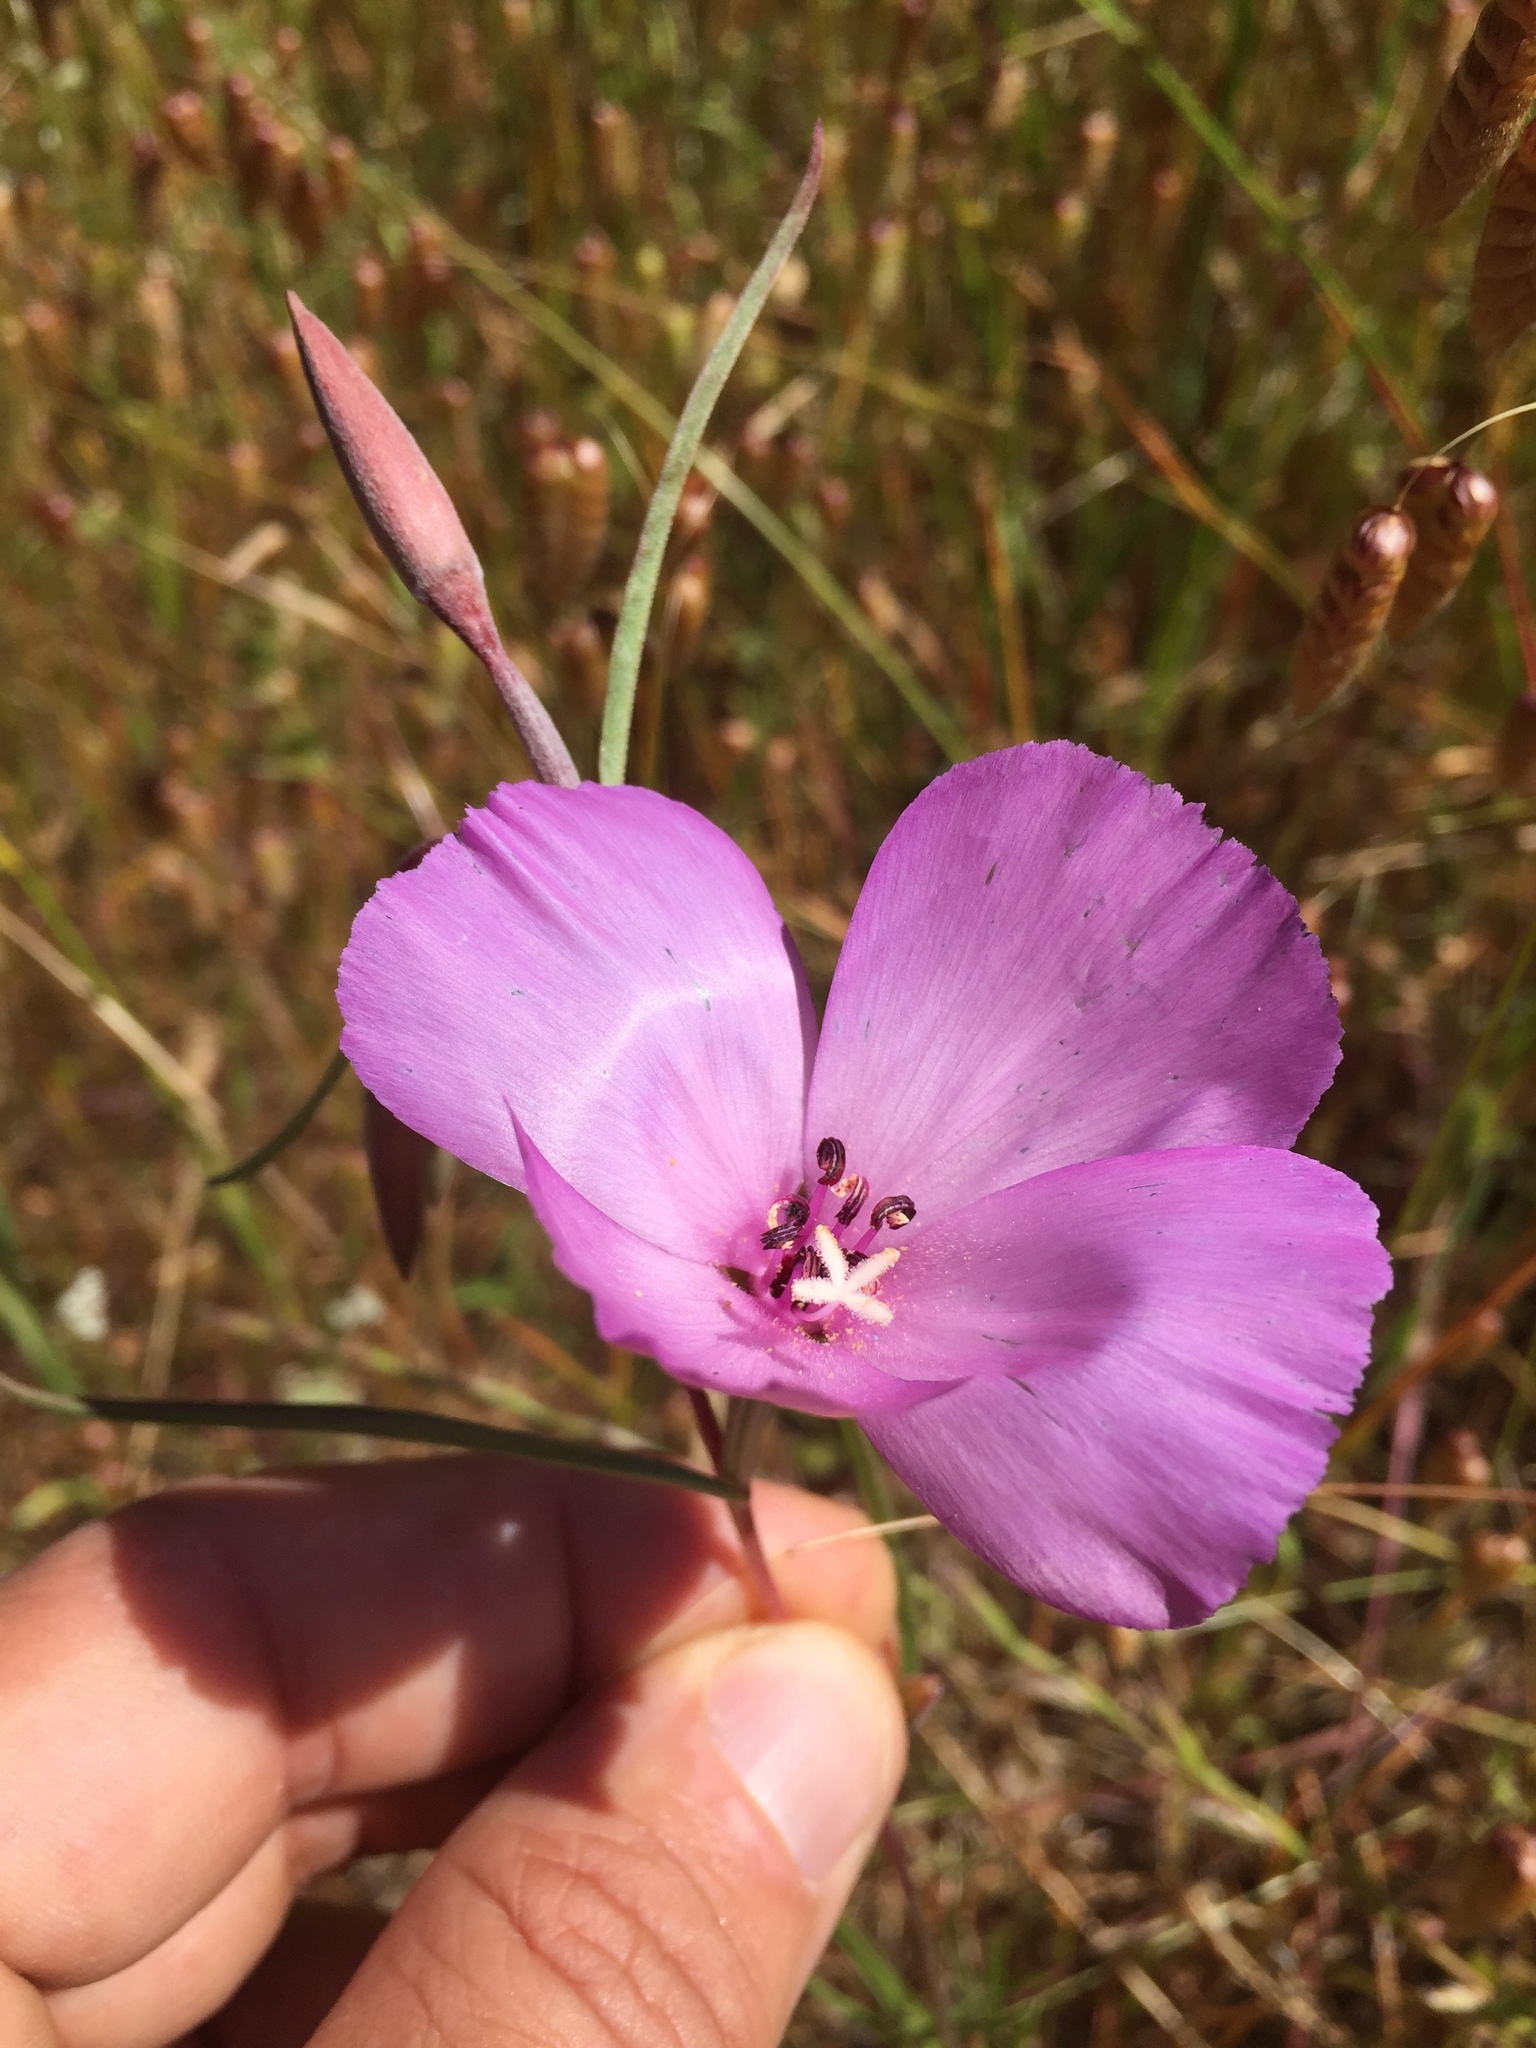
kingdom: Plantae
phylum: Tracheophyta
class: Magnoliopsida
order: Myrtales
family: Onagraceae
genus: Clarkia
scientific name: Clarkia gracilis
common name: Graceful clarkia
